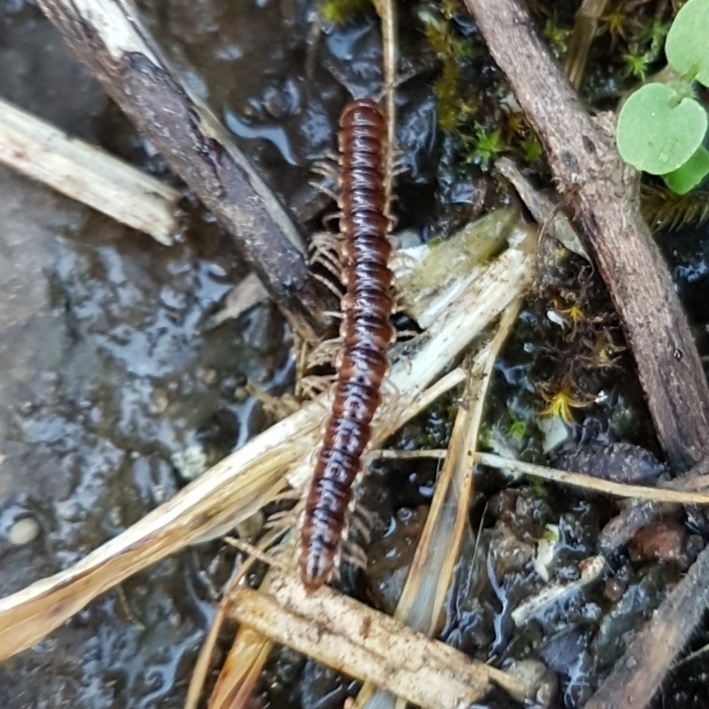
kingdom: Animalia
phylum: Arthropoda
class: Diplopoda
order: Polydesmida
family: Paradoxosomatidae
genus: Oxidus
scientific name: Oxidus gracilis
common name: Greenhouse millipede
